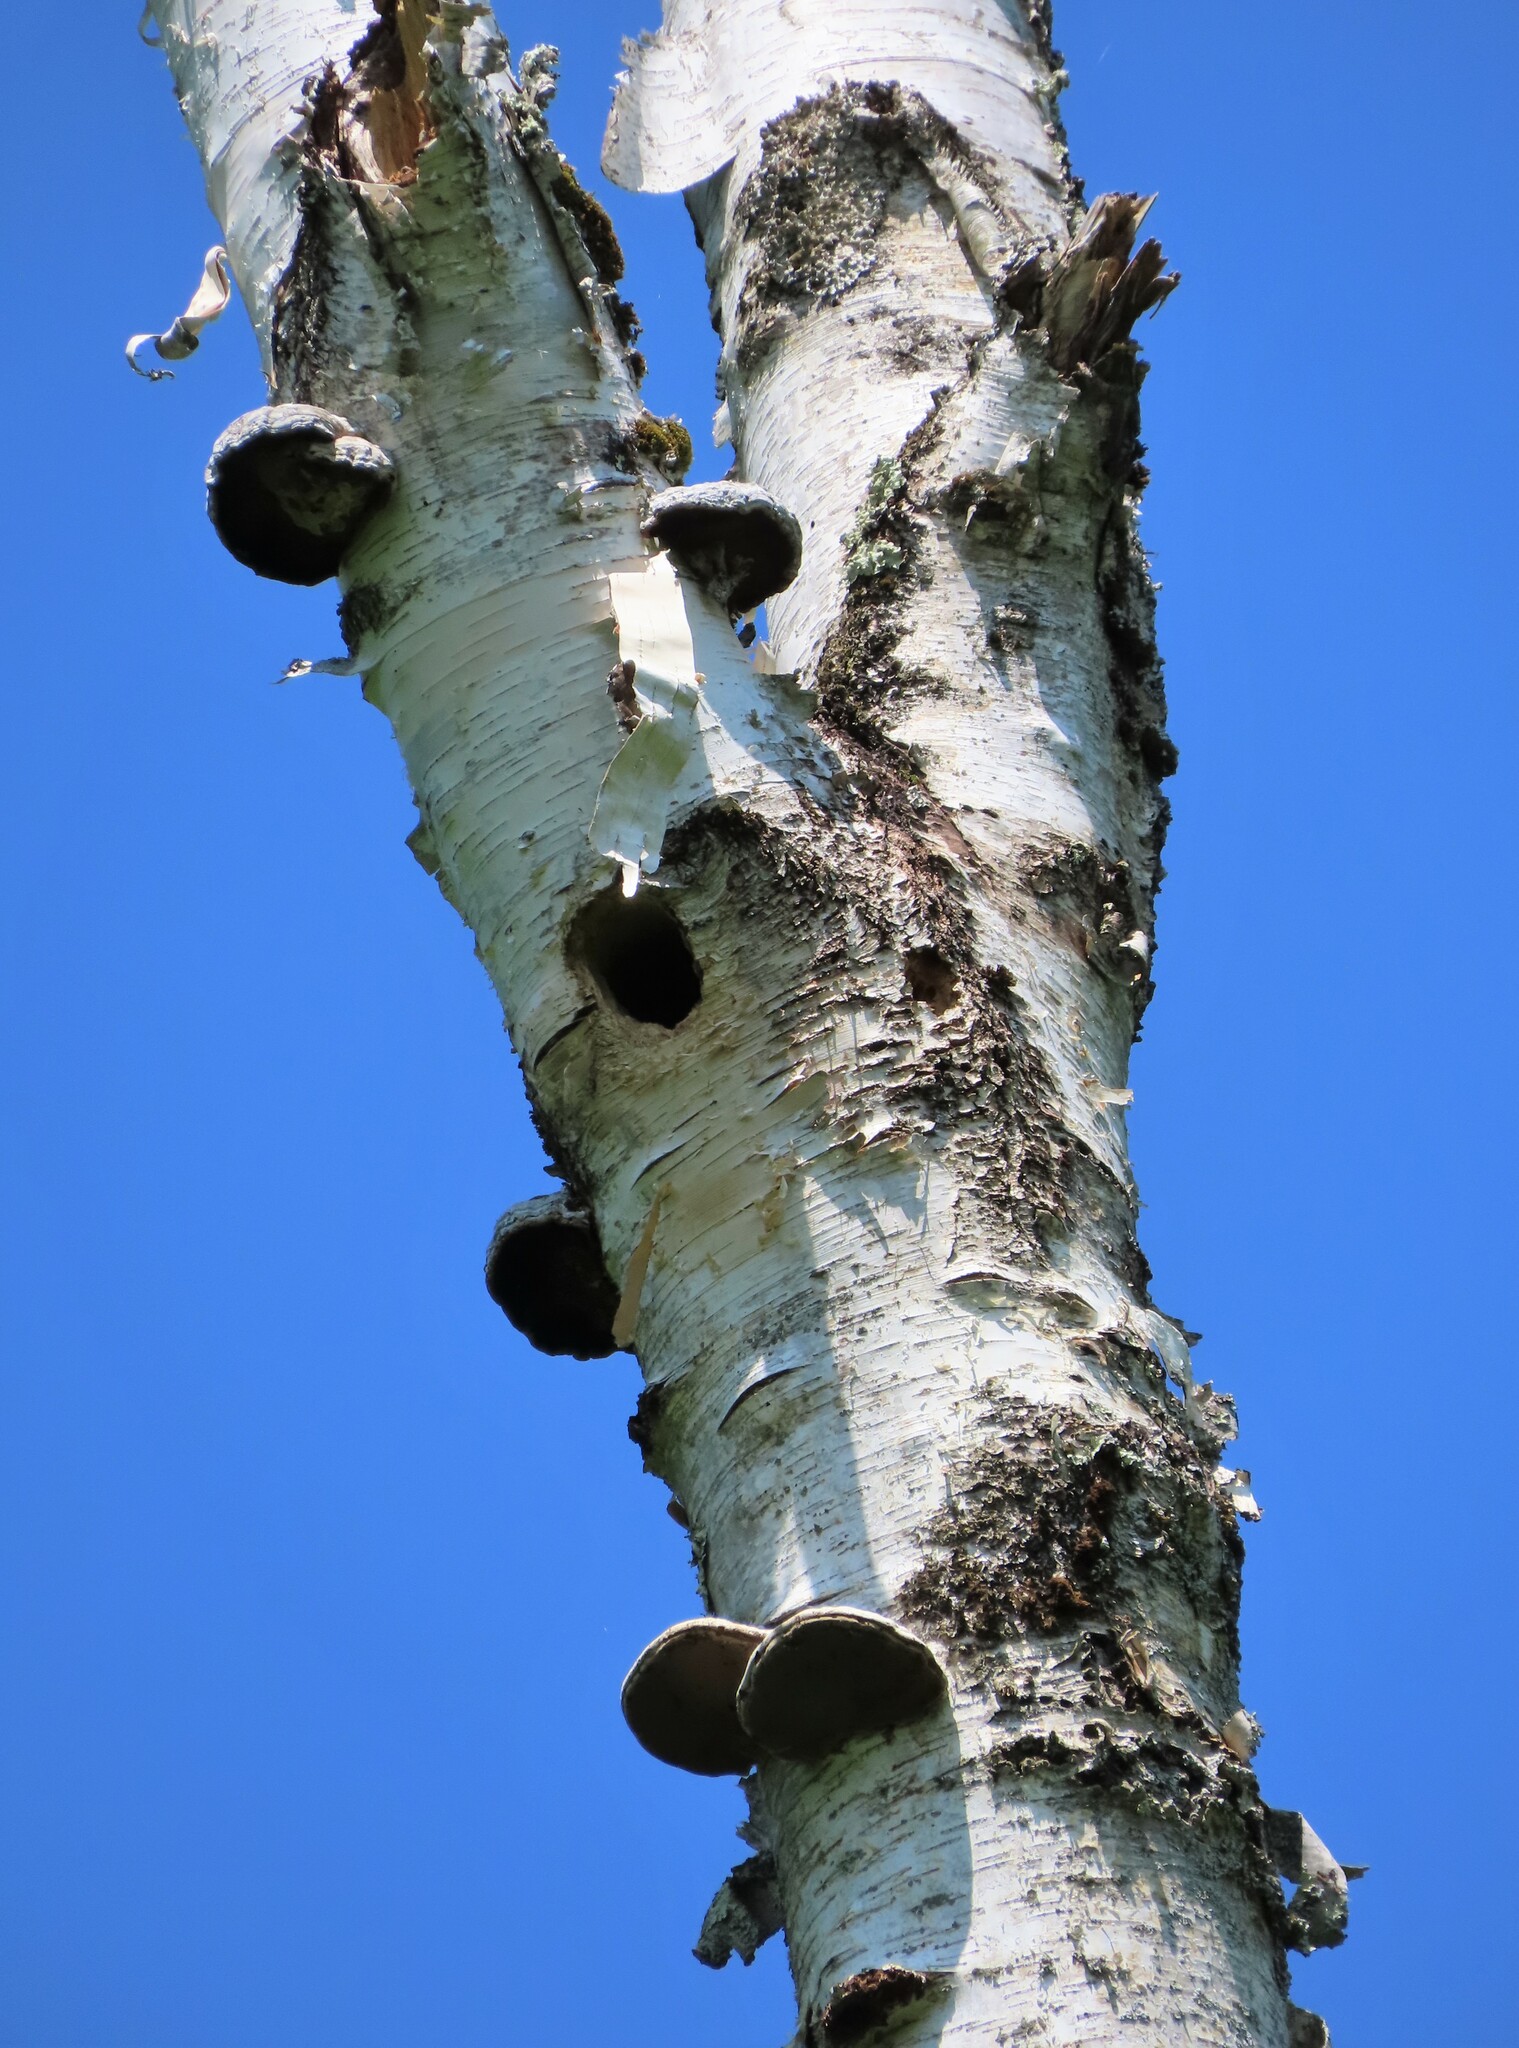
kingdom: Fungi
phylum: Basidiomycota
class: Agaricomycetes
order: Polyporales
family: Polyporaceae
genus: Fomes
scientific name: Fomes fomentarius
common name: Hoof fungus
